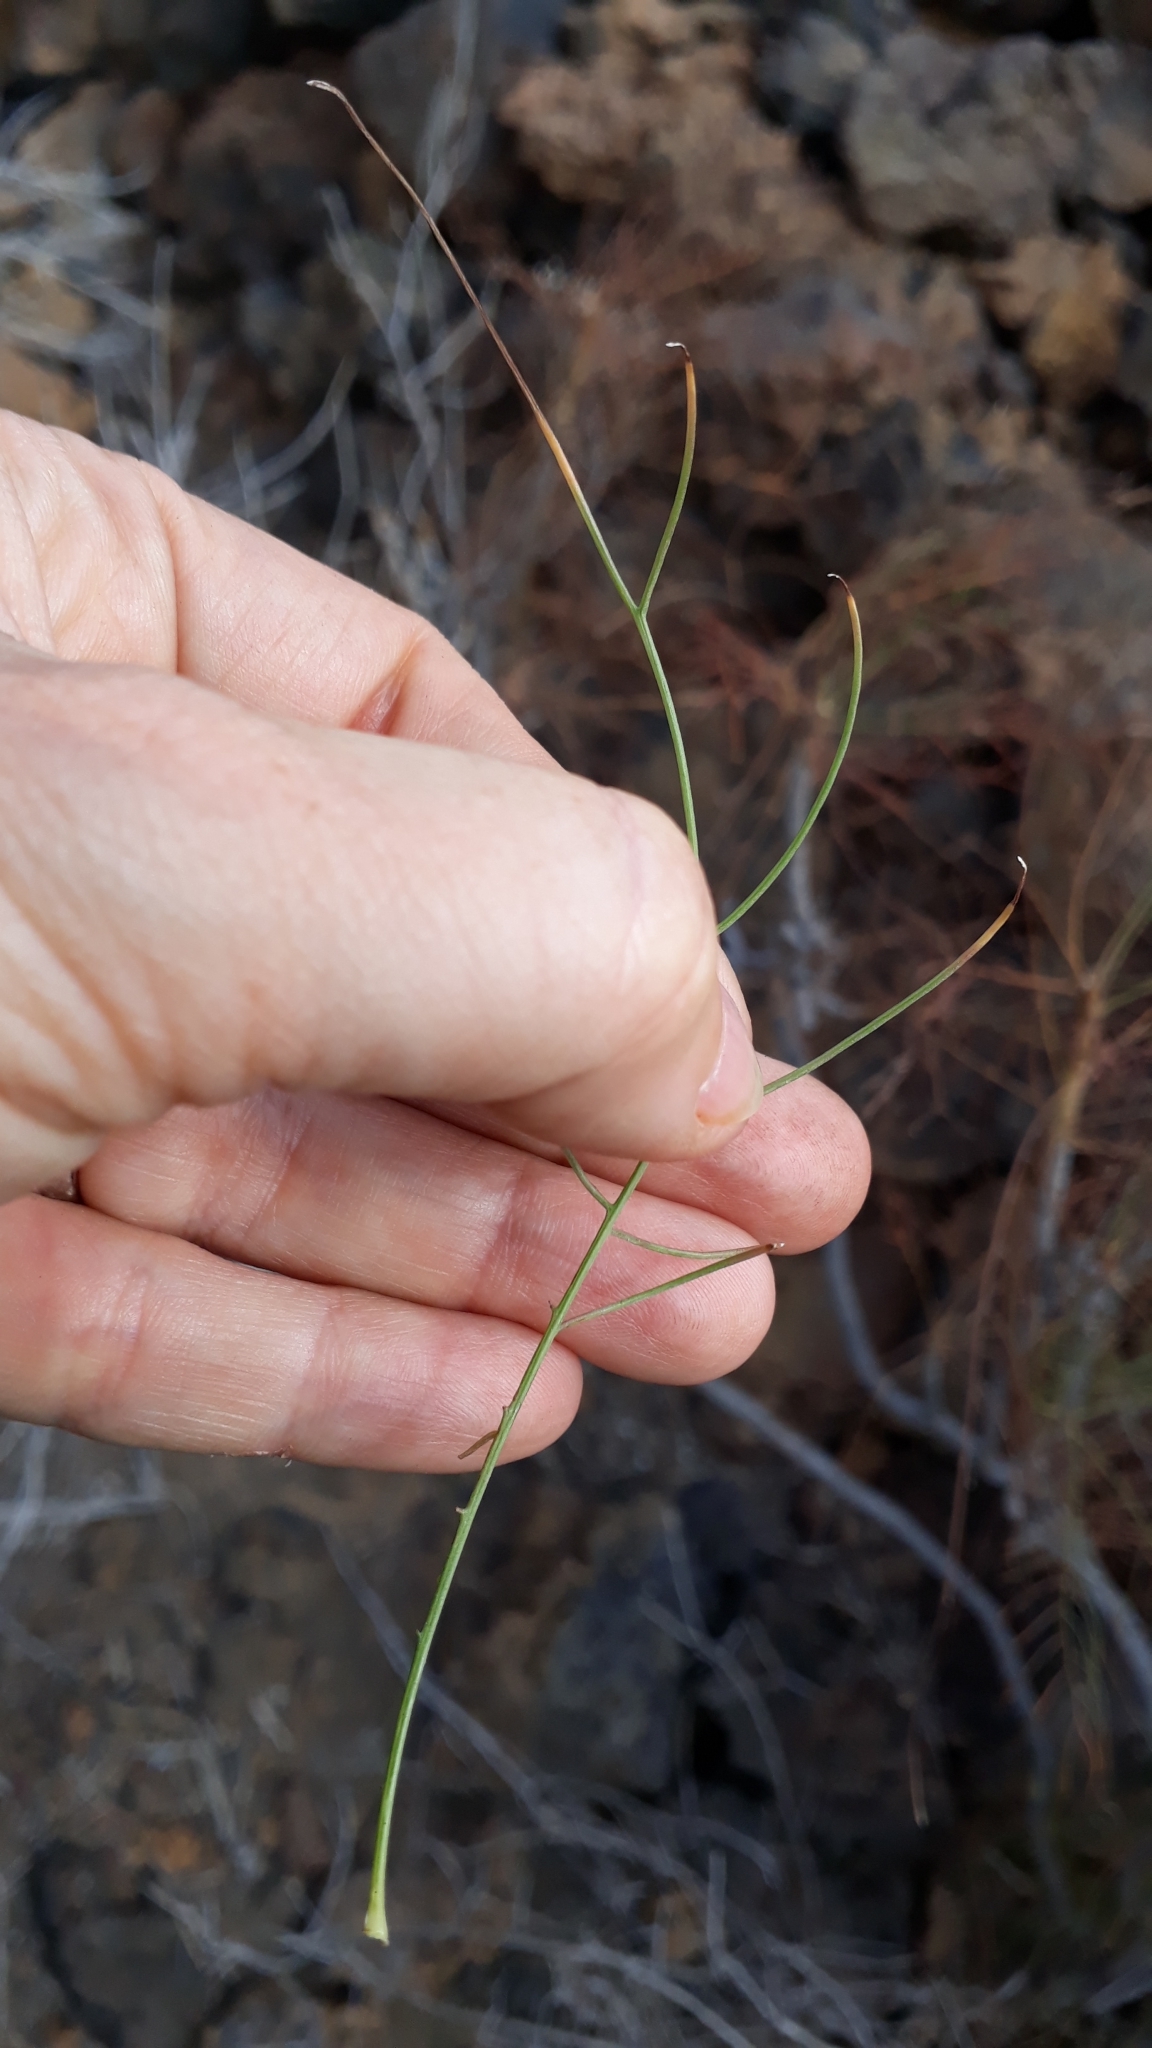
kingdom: Plantae
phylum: Tracheophyta
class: Magnoliopsida
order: Asterales
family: Asteraceae
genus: Sonchus
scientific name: Sonchus capillaris
